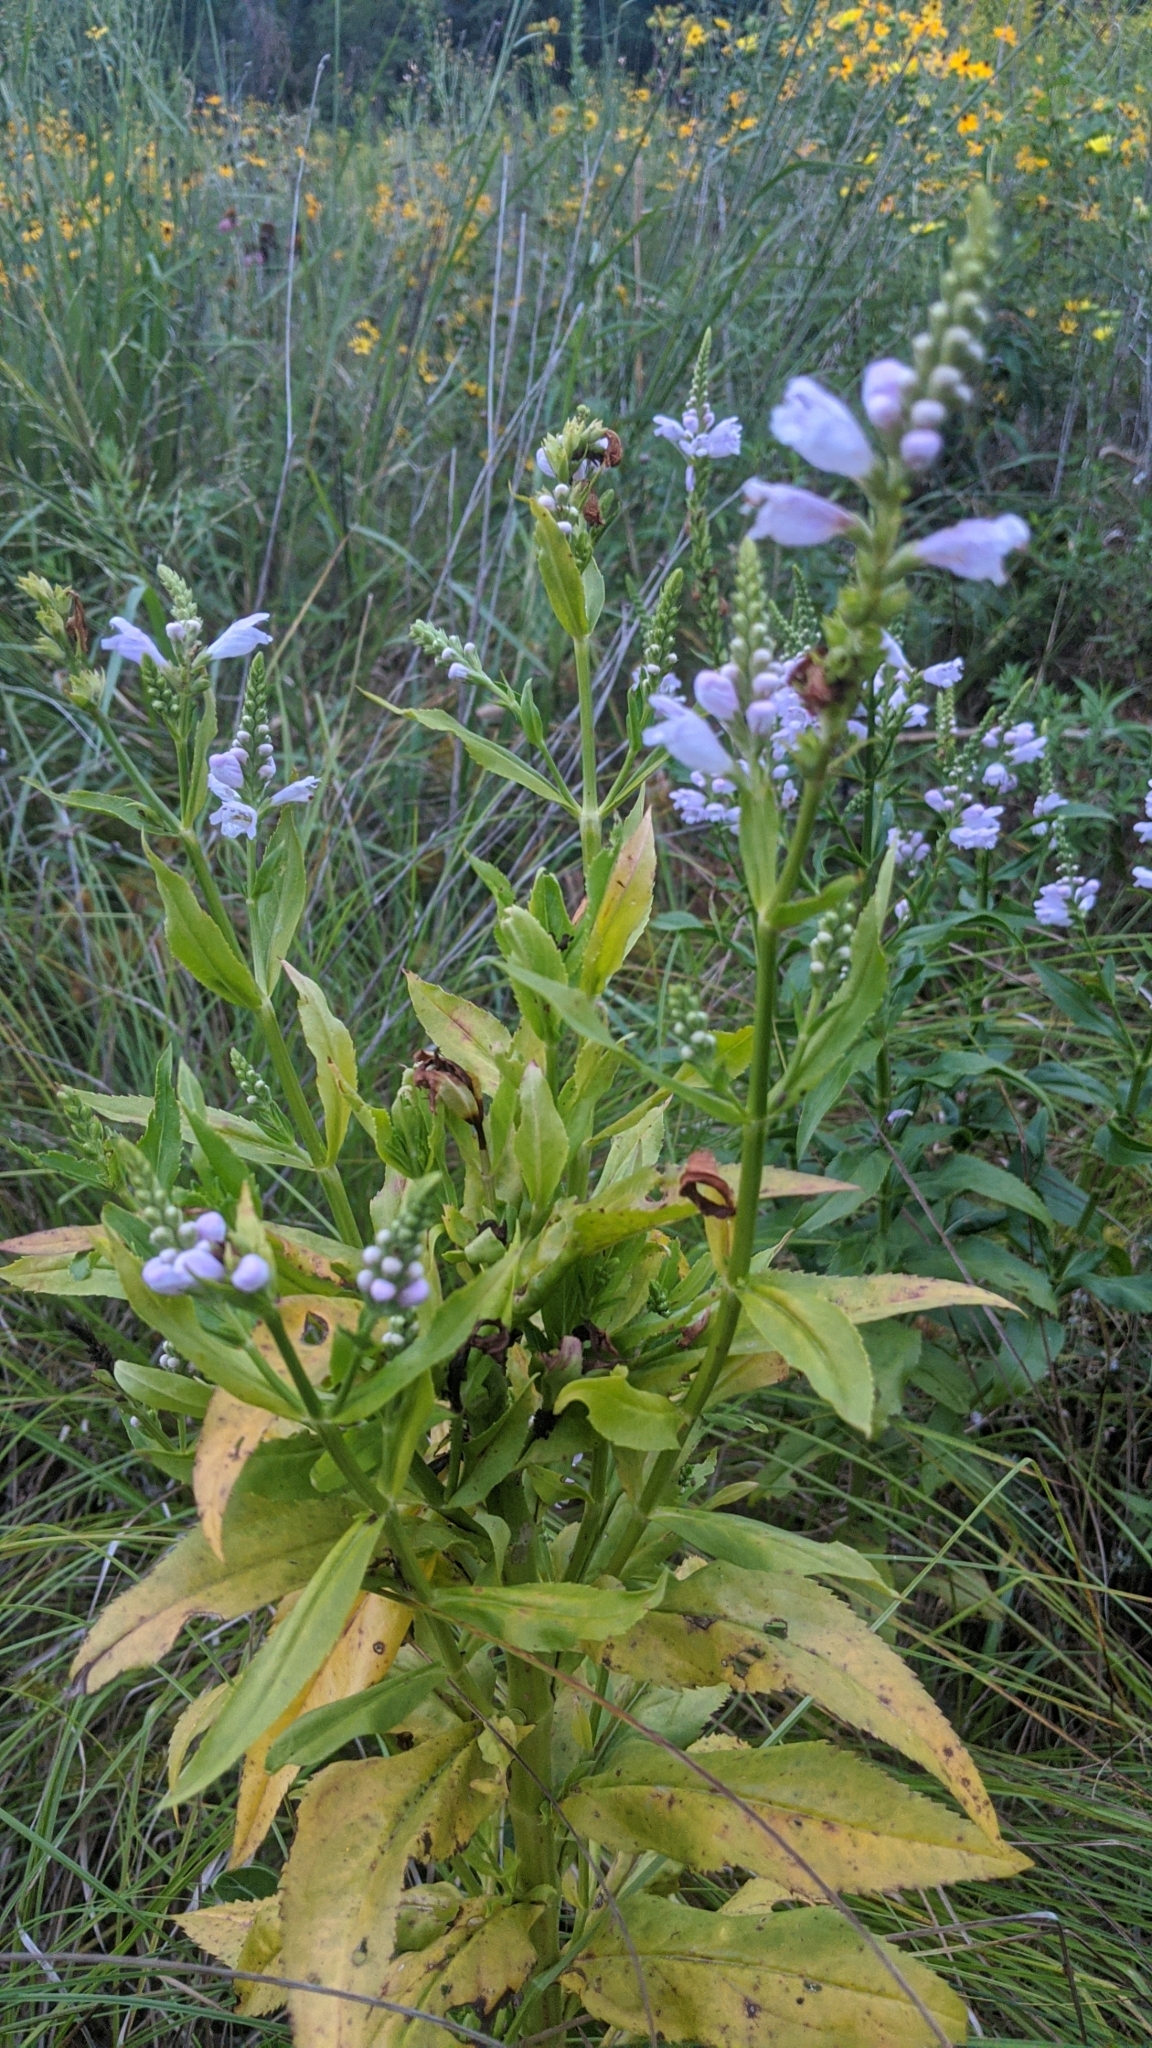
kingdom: Plantae
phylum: Tracheophyta
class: Magnoliopsida
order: Lamiales
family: Lamiaceae
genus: Physostegia
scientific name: Physostegia virginiana
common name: Obedient-plant
